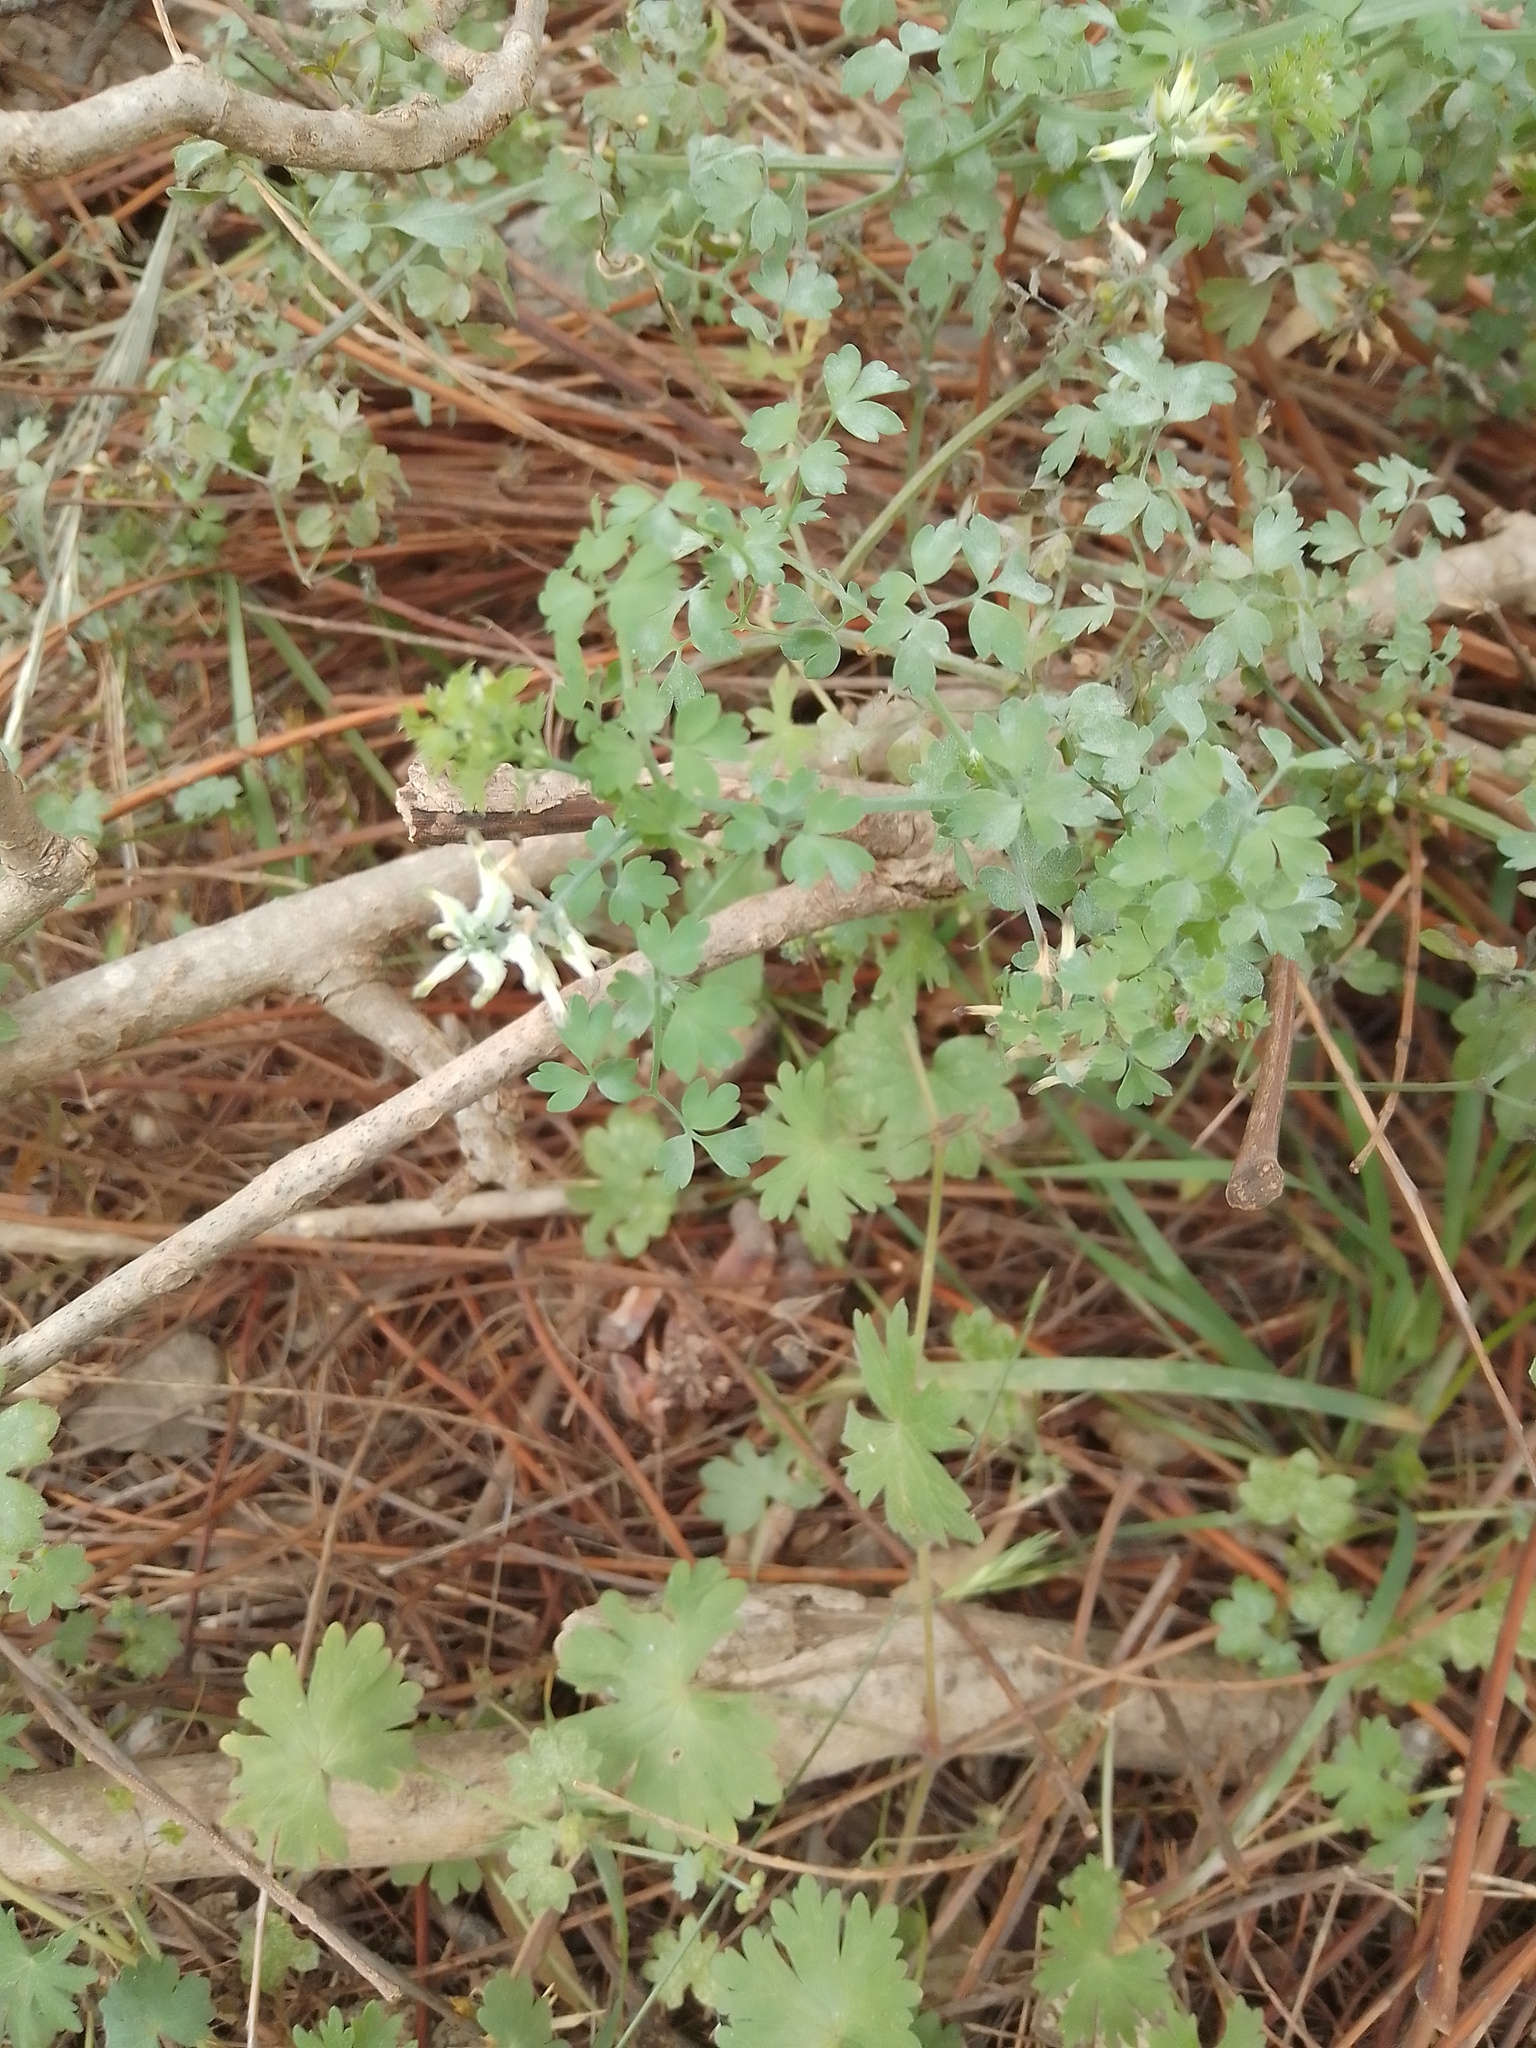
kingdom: Plantae
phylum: Tracheophyta
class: Magnoliopsida
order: Ranunculales
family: Papaveraceae
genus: Fumaria
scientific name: Fumaria capreolata
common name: White ramping-fumitory
